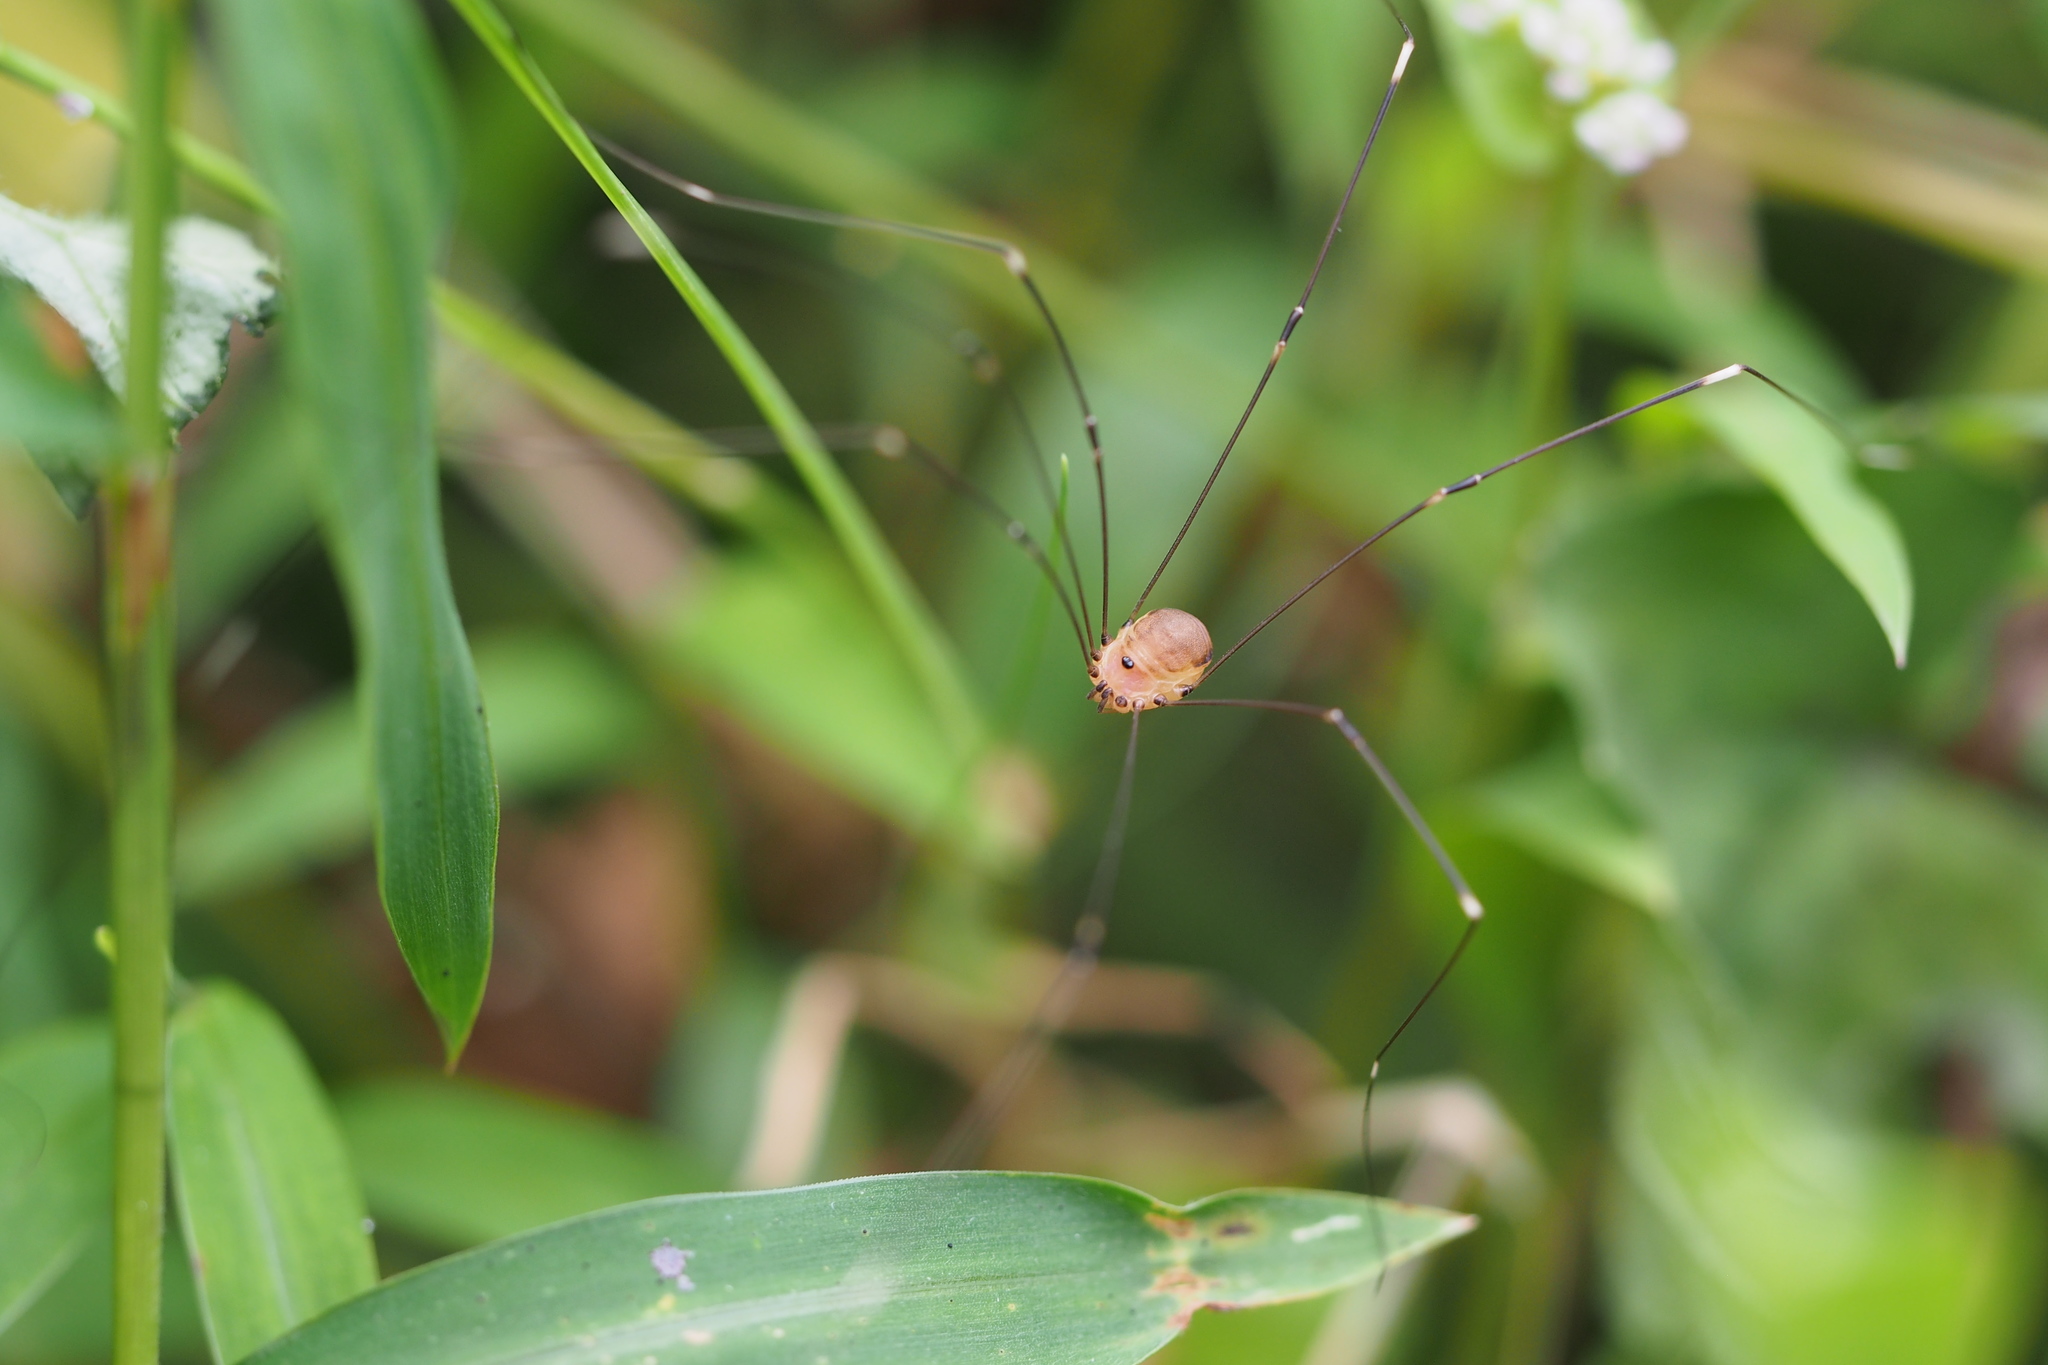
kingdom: Animalia
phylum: Arthropoda
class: Arachnida
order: Opiliones
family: Sclerosomatidae
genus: Leiobunum
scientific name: Leiobunum japonicum
